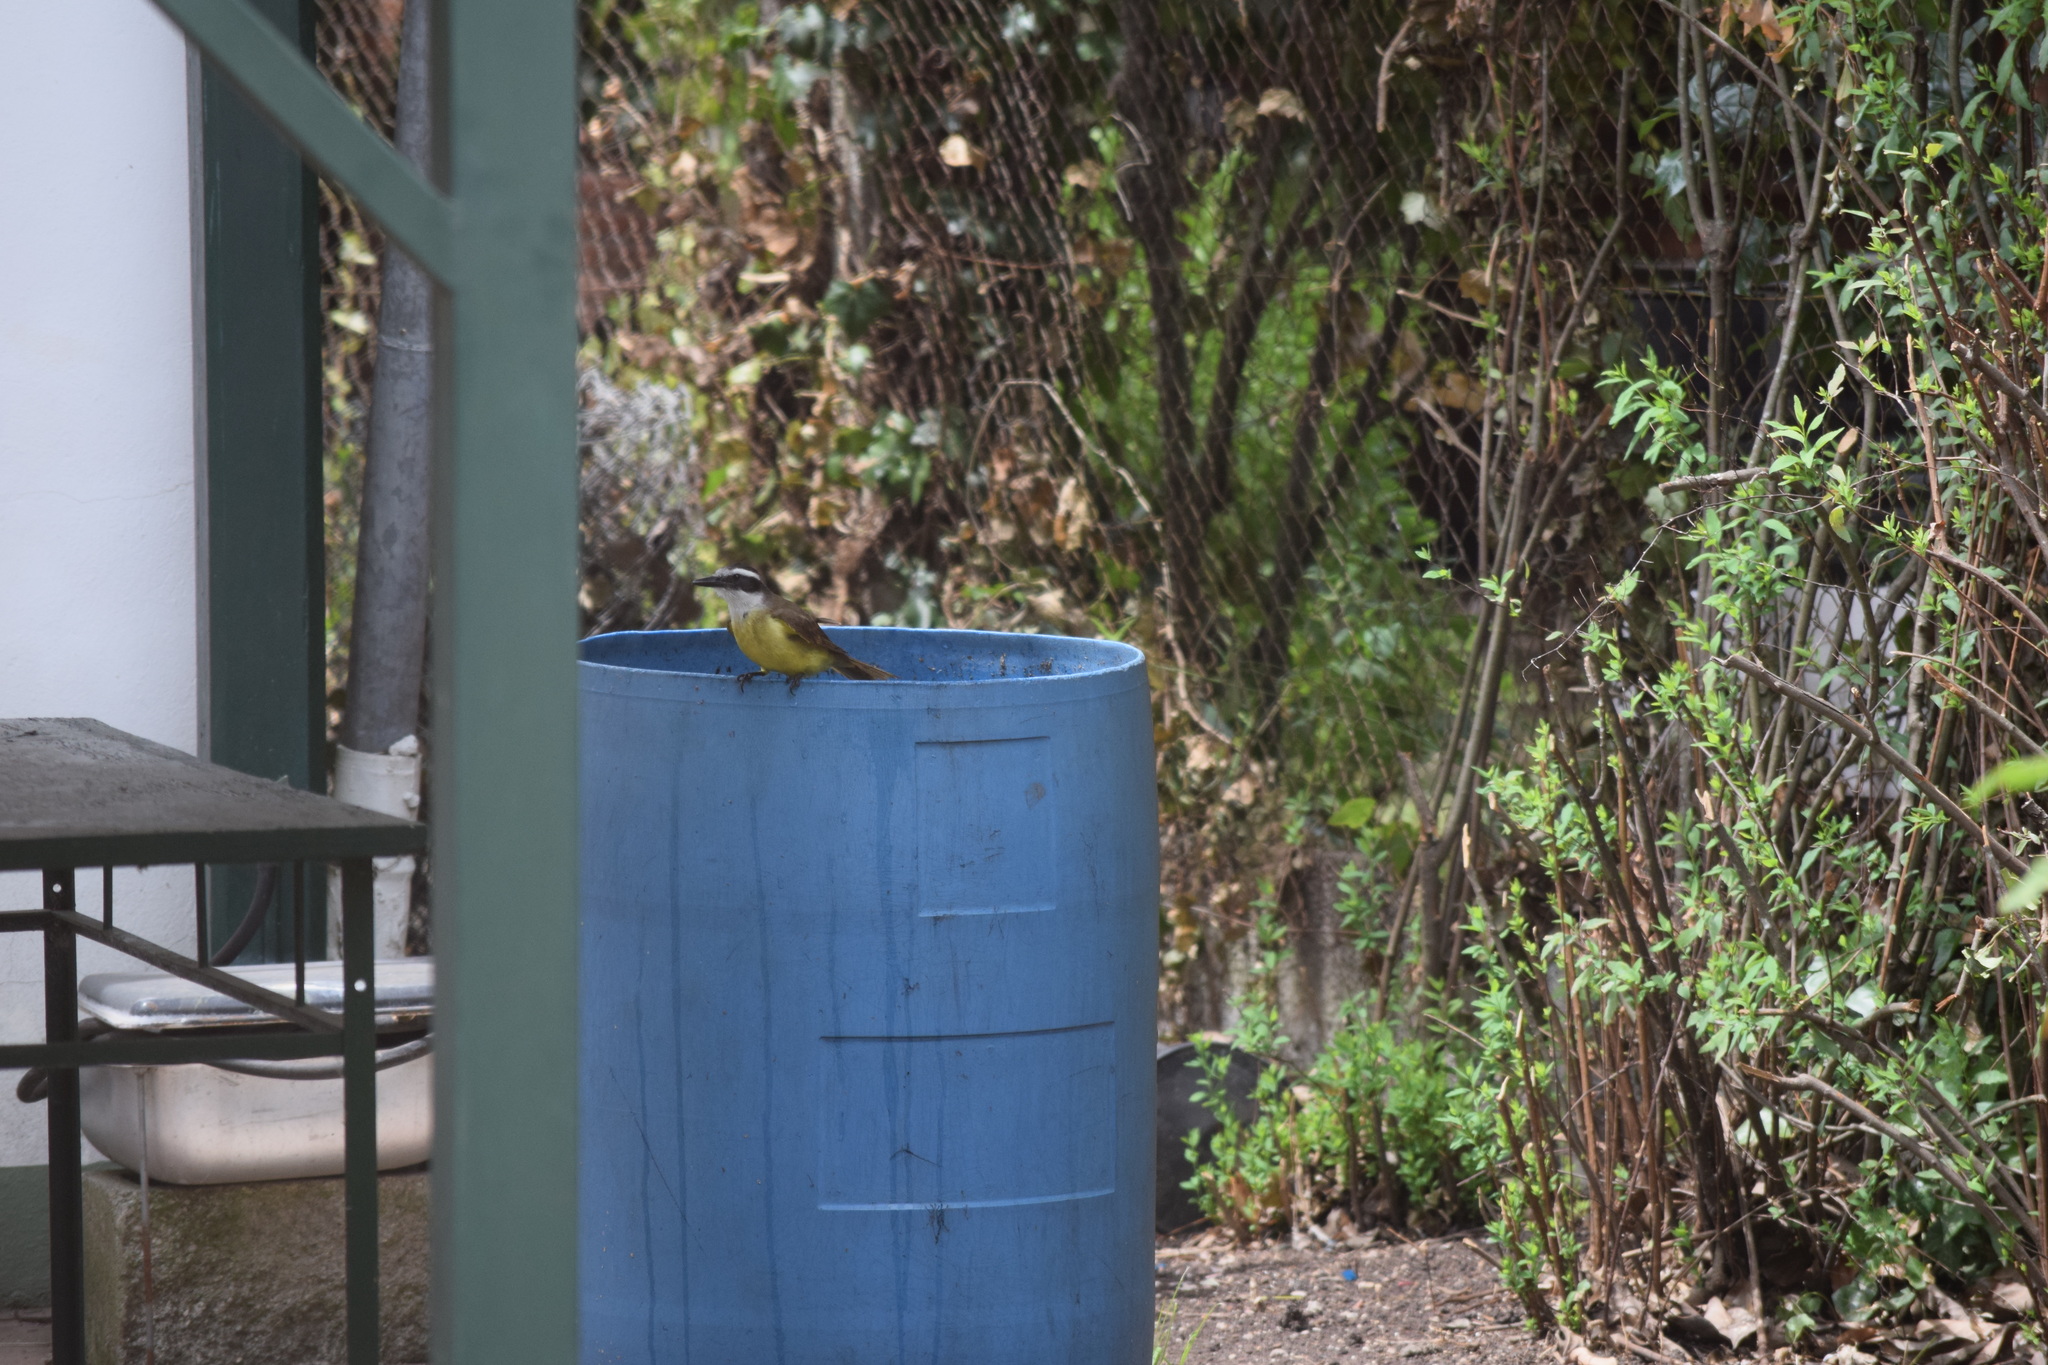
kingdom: Animalia
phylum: Chordata
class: Aves
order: Passeriformes
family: Tyrannidae
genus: Pitangus
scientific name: Pitangus sulphuratus
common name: Great kiskadee
